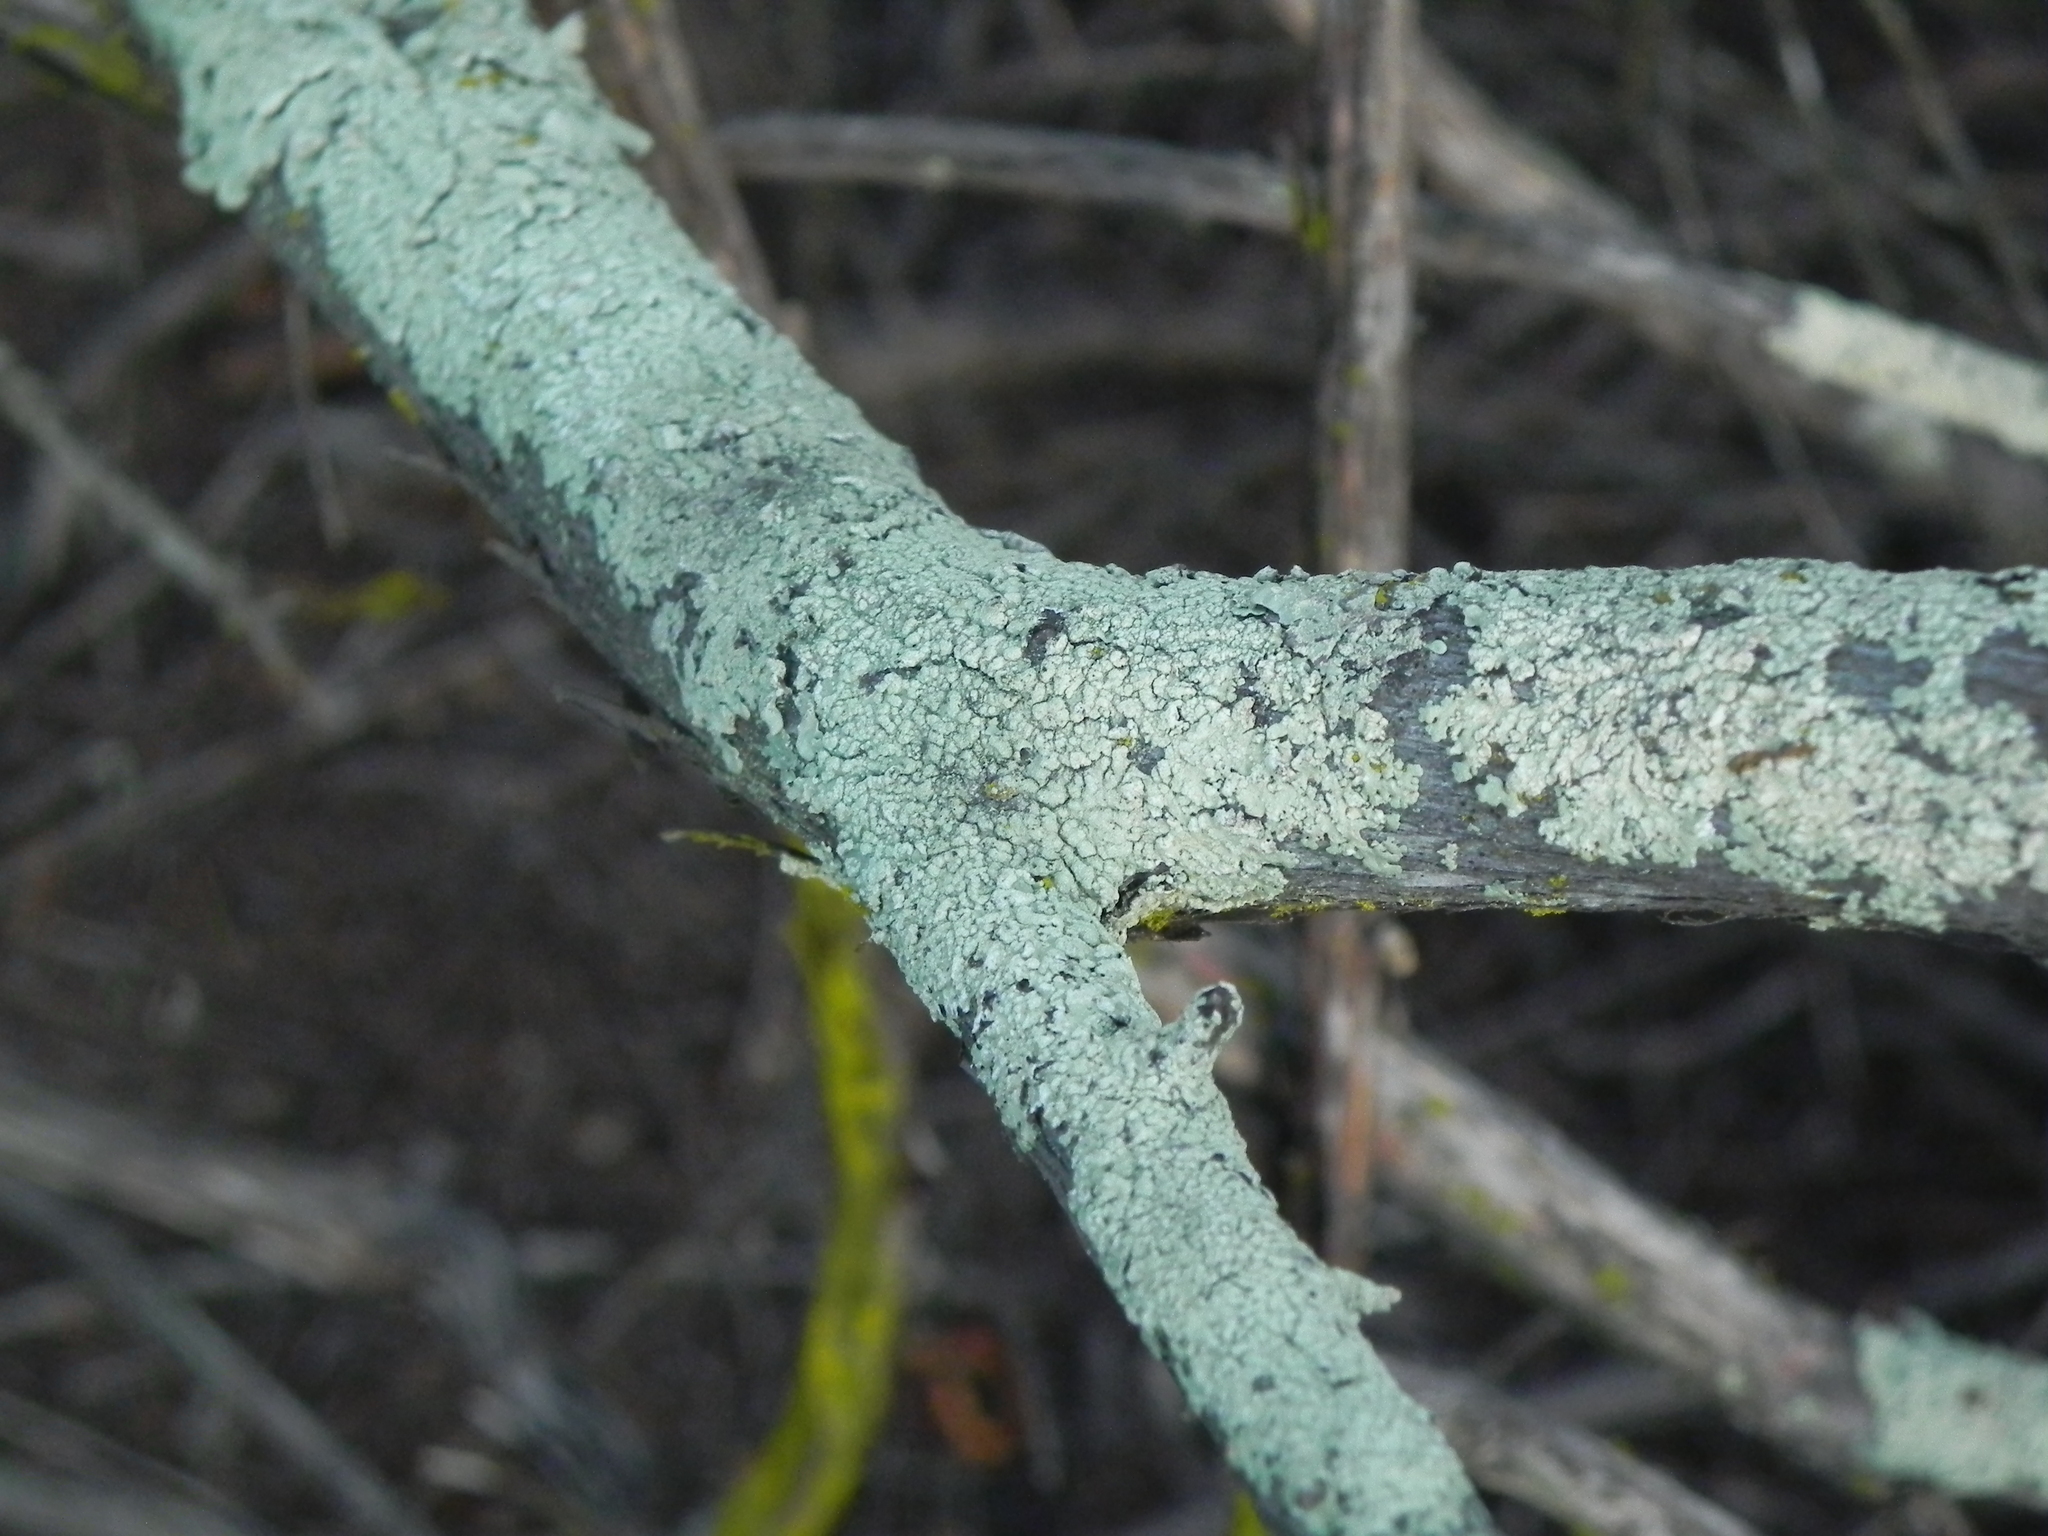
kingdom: Fungi
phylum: Ascomycota
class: Lecanoromycetes
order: Lecanorales
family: Parmeliaceae
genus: Flavoparmelia
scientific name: Flavoparmelia subcapitata
